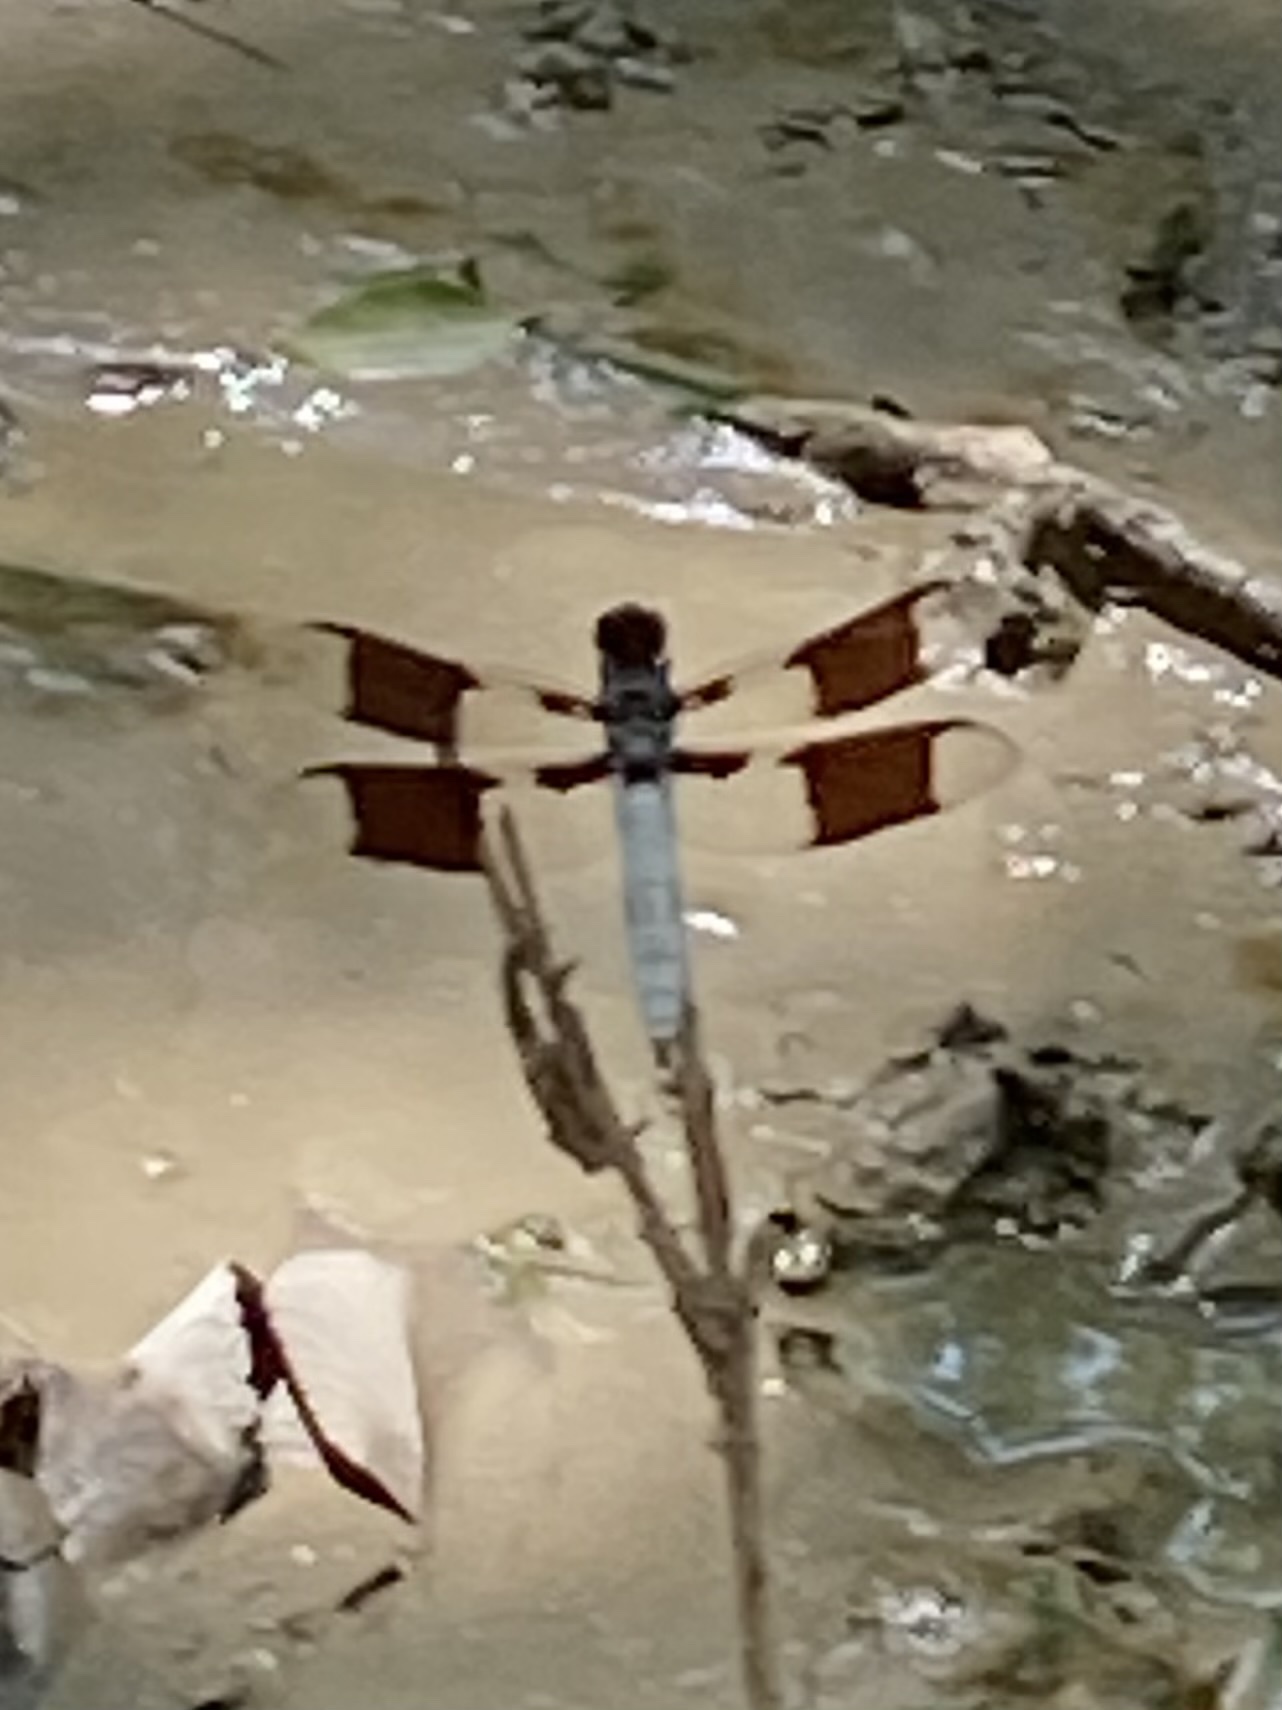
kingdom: Animalia
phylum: Arthropoda
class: Insecta
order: Odonata
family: Libellulidae
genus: Plathemis
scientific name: Plathemis lydia
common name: Common whitetail
